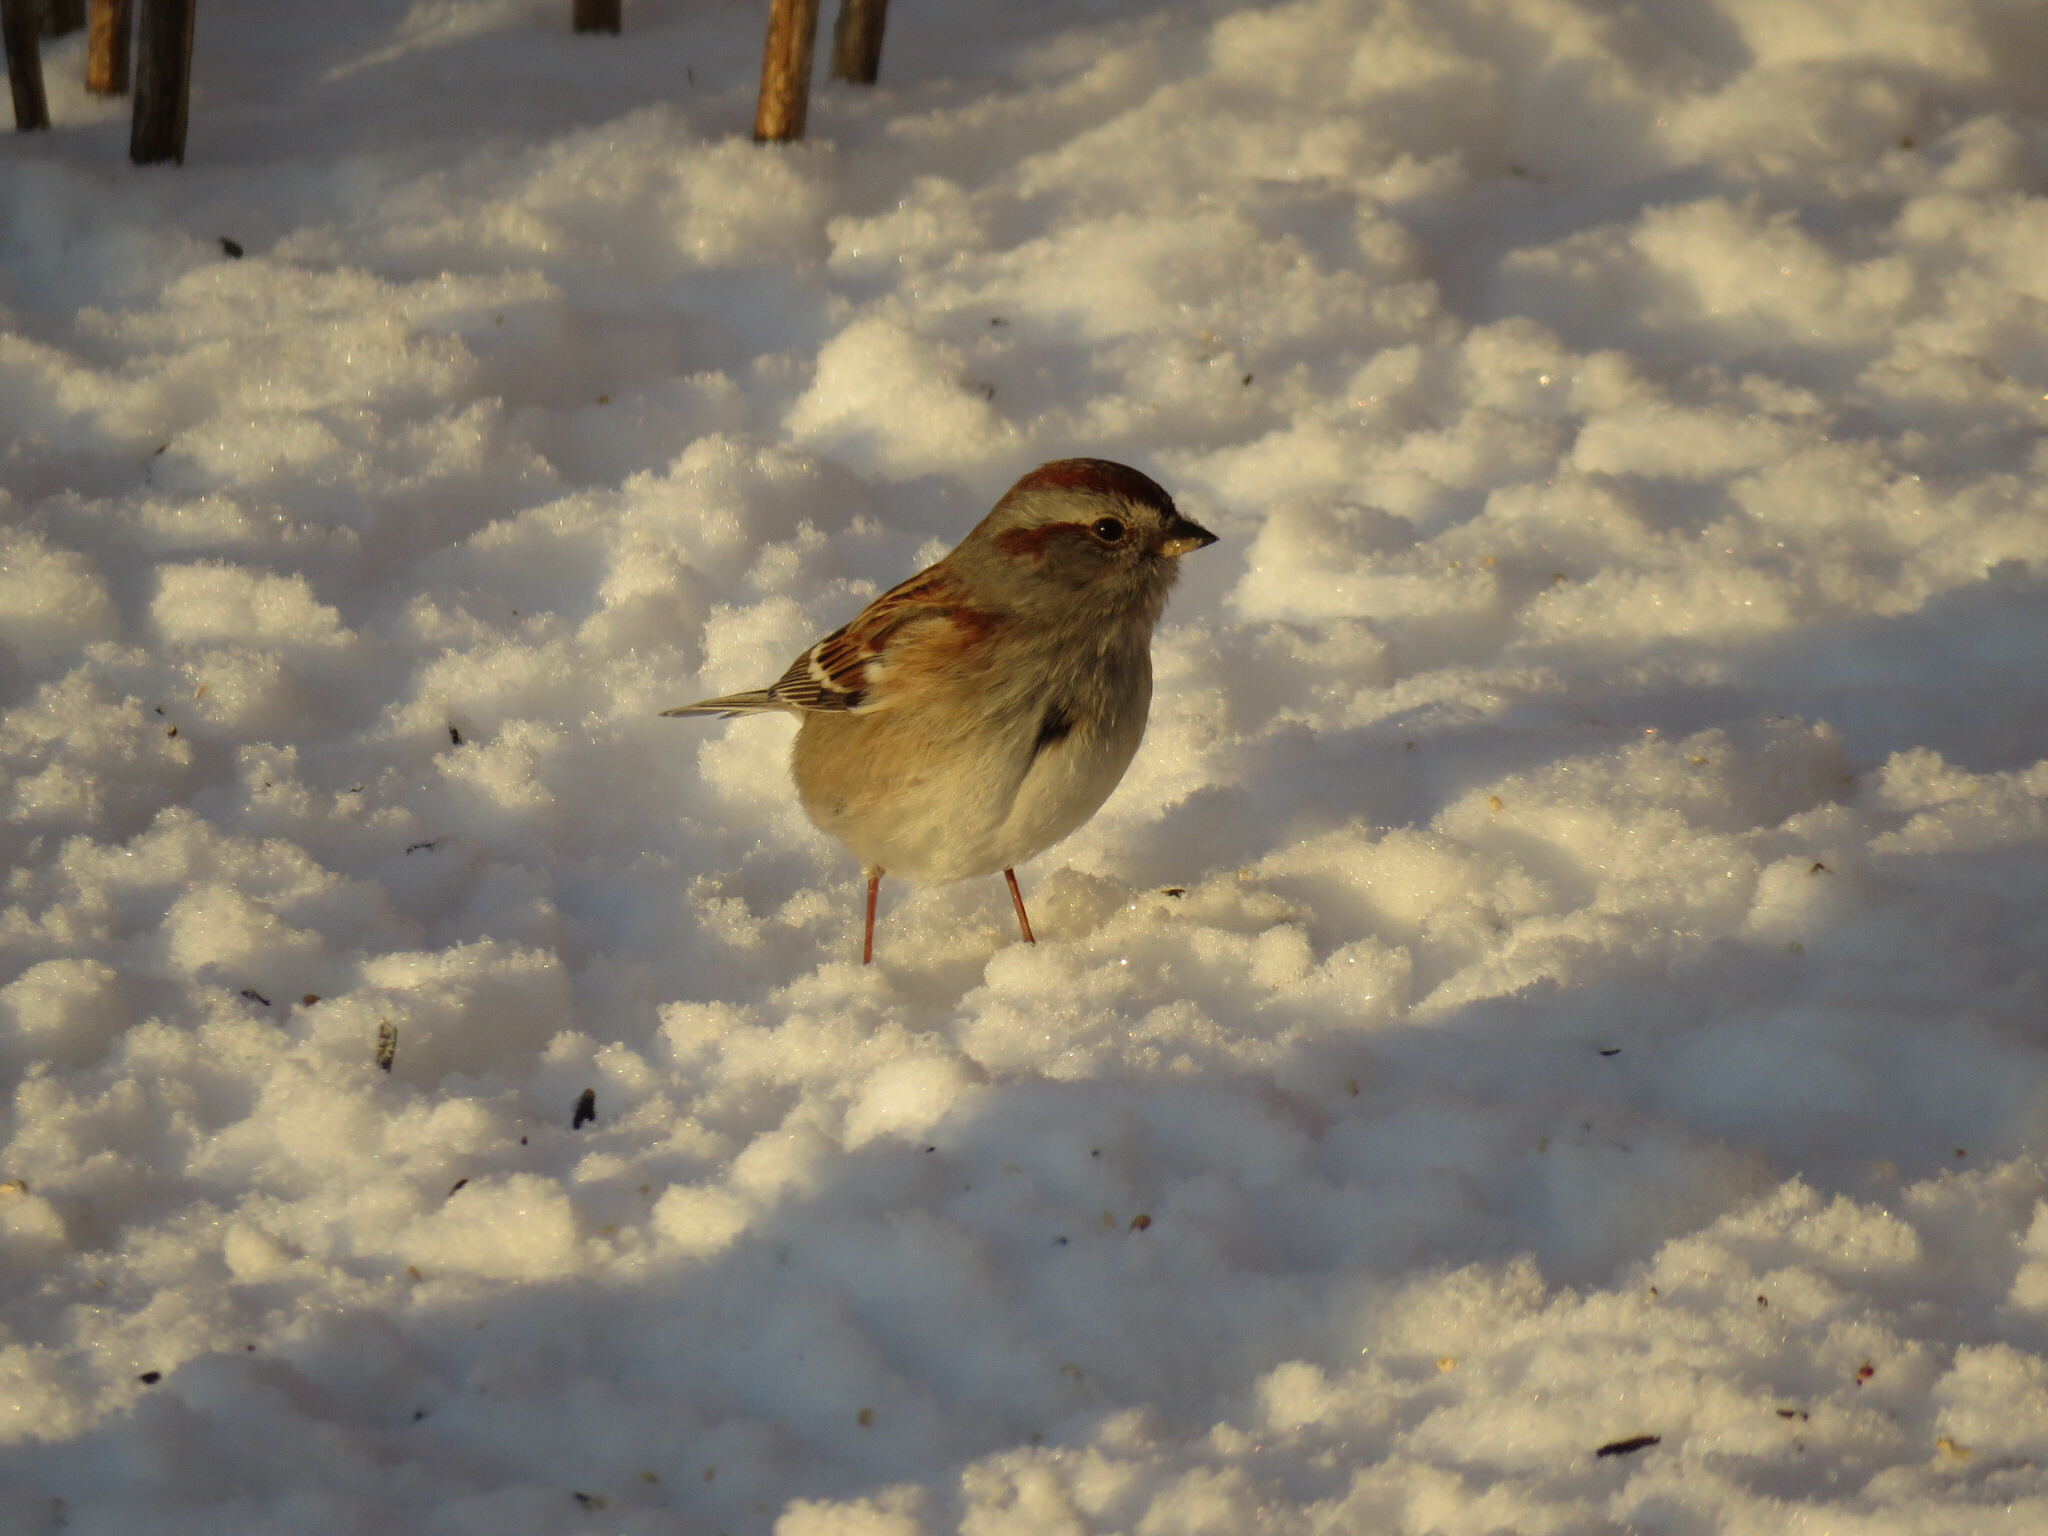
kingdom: Animalia
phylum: Chordata
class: Aves
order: Passeriformes
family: Passerellidae
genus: Spizelloides
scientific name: Spizelloides arborea
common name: American tree sparrow
